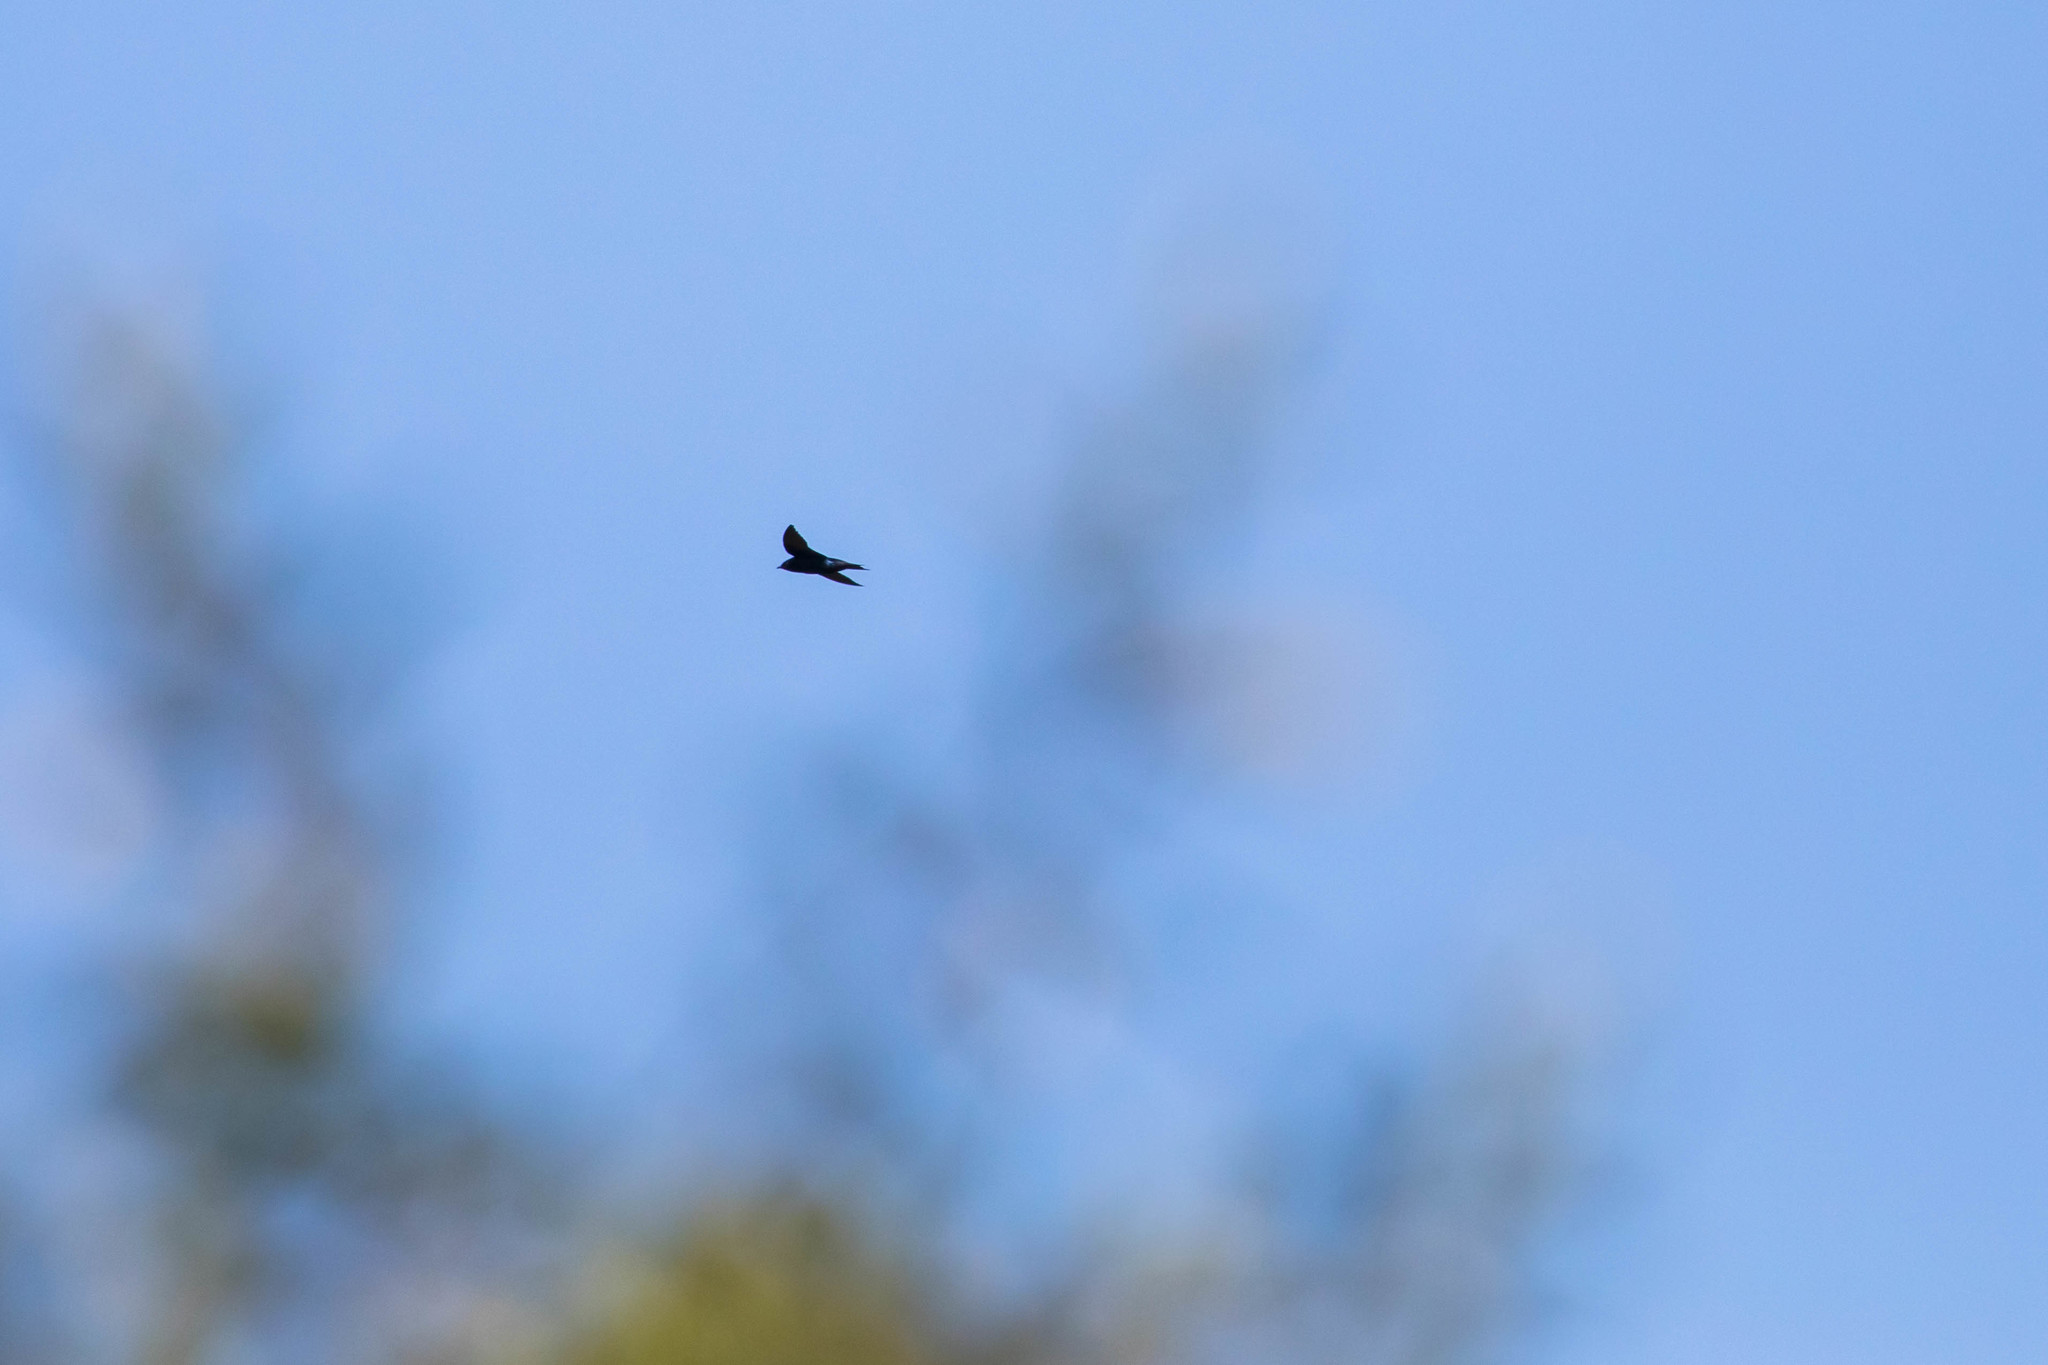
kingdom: Animalia
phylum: Chordata
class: Aves
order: Passeriformes
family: Hirundinidae
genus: Progne
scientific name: Progne subis
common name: Purple martin
